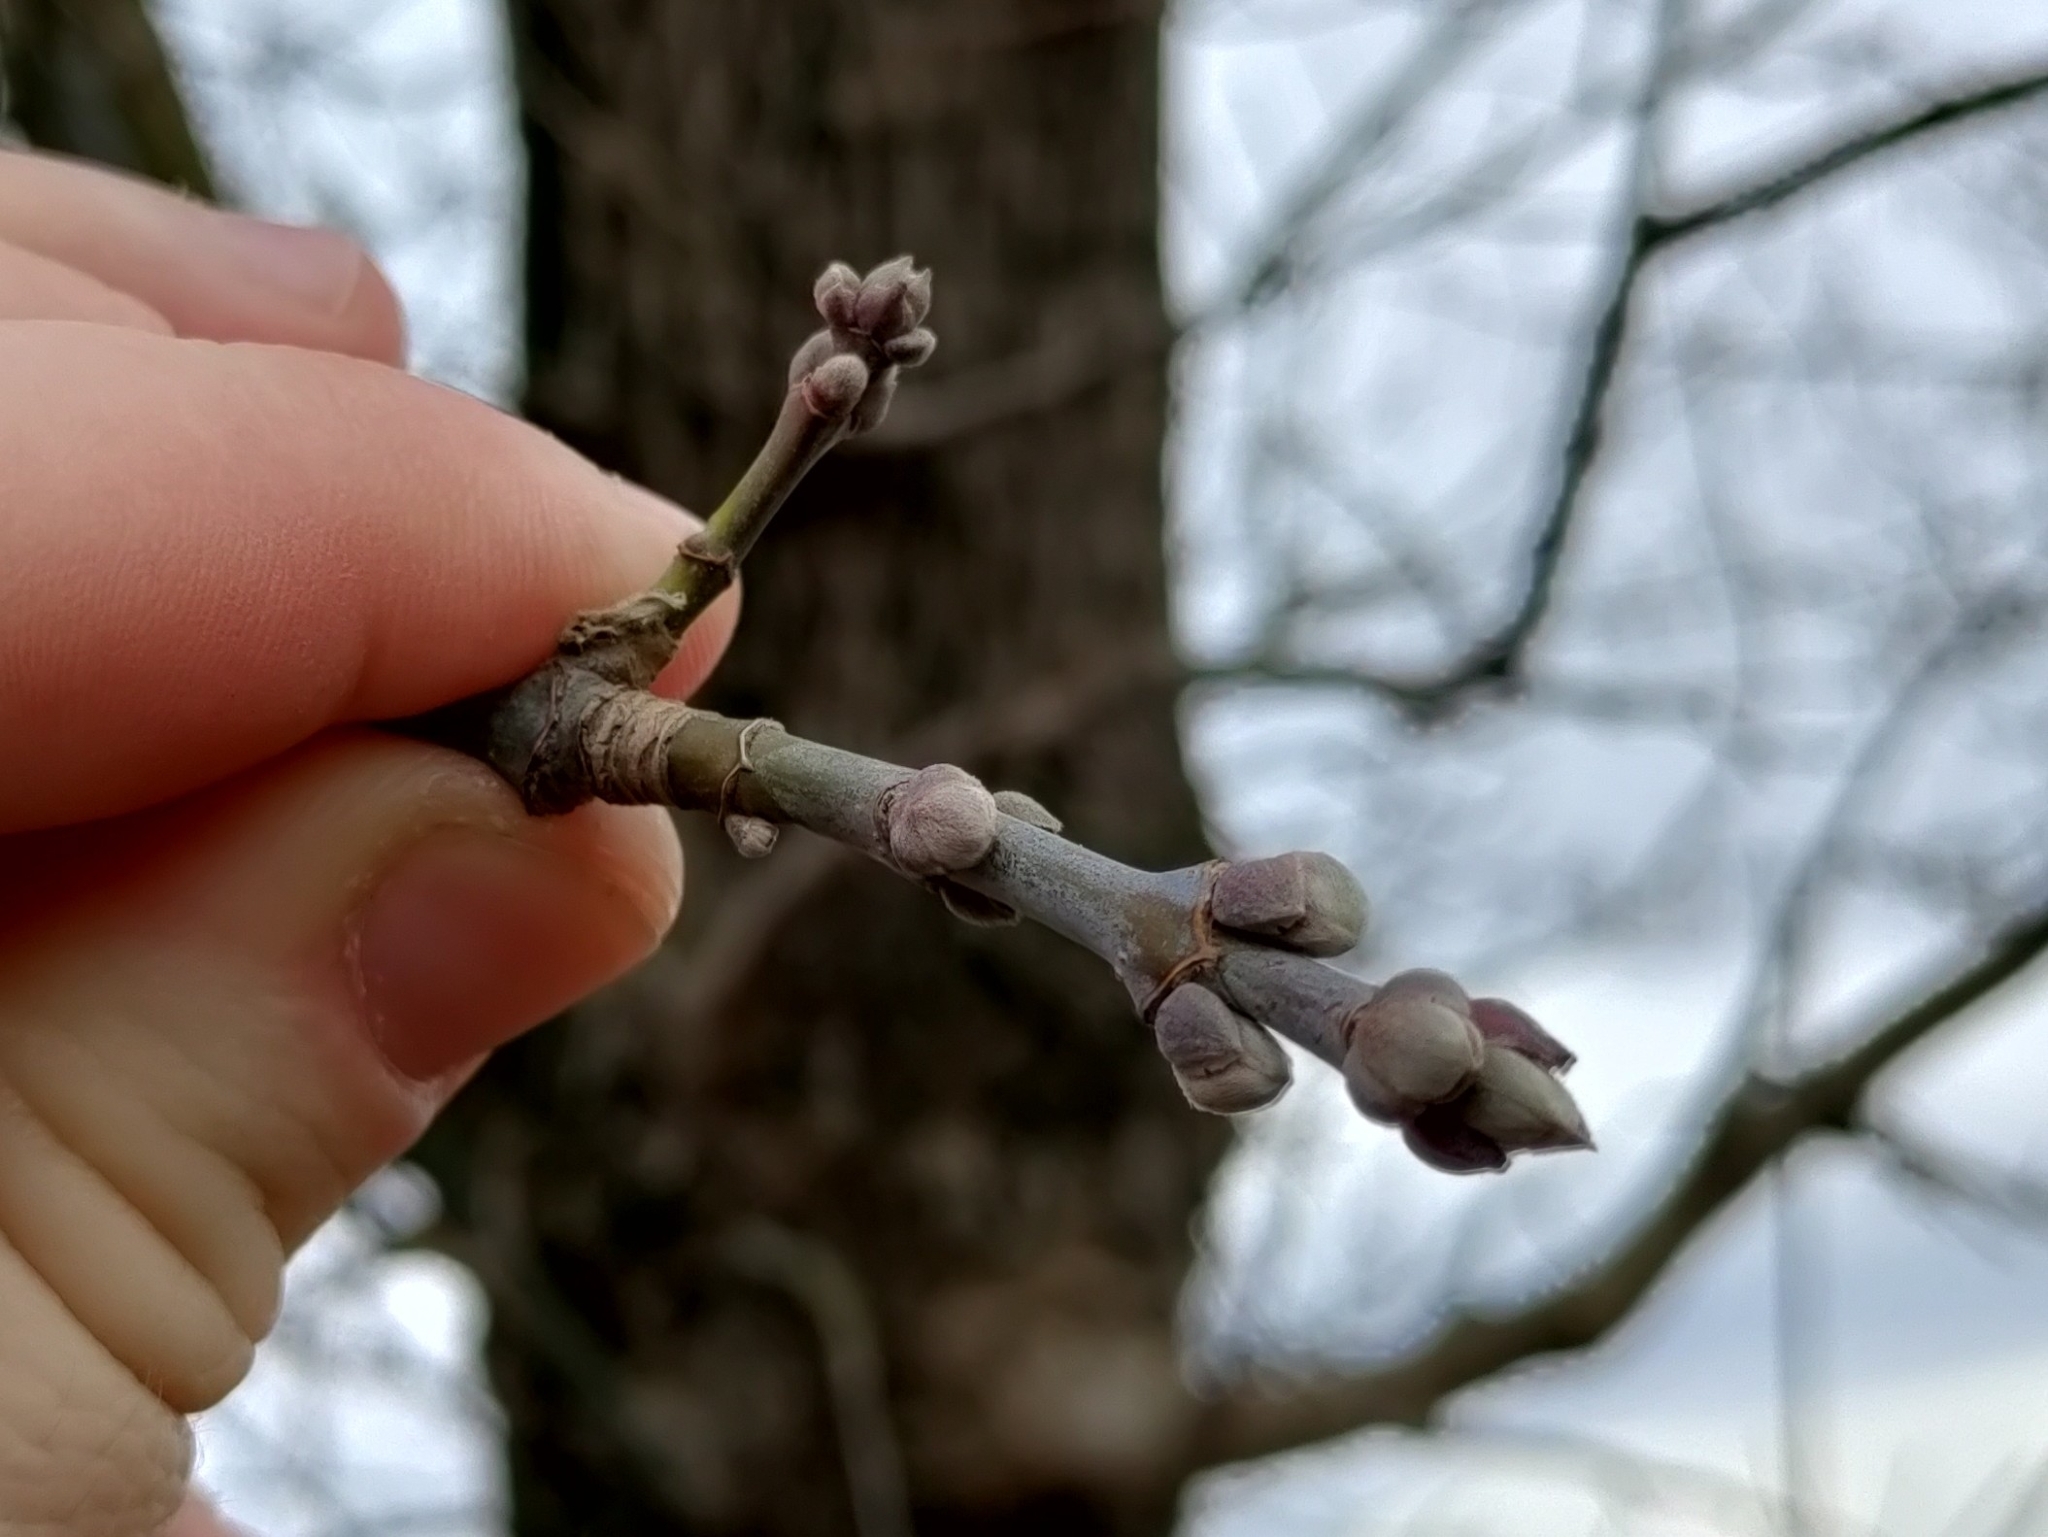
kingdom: Plantae
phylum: Tracheophyta
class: Magnoliopsida
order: Sapindales
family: Sapindaceae
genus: Acer
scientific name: Acer negundo
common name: Ashleaf maple
